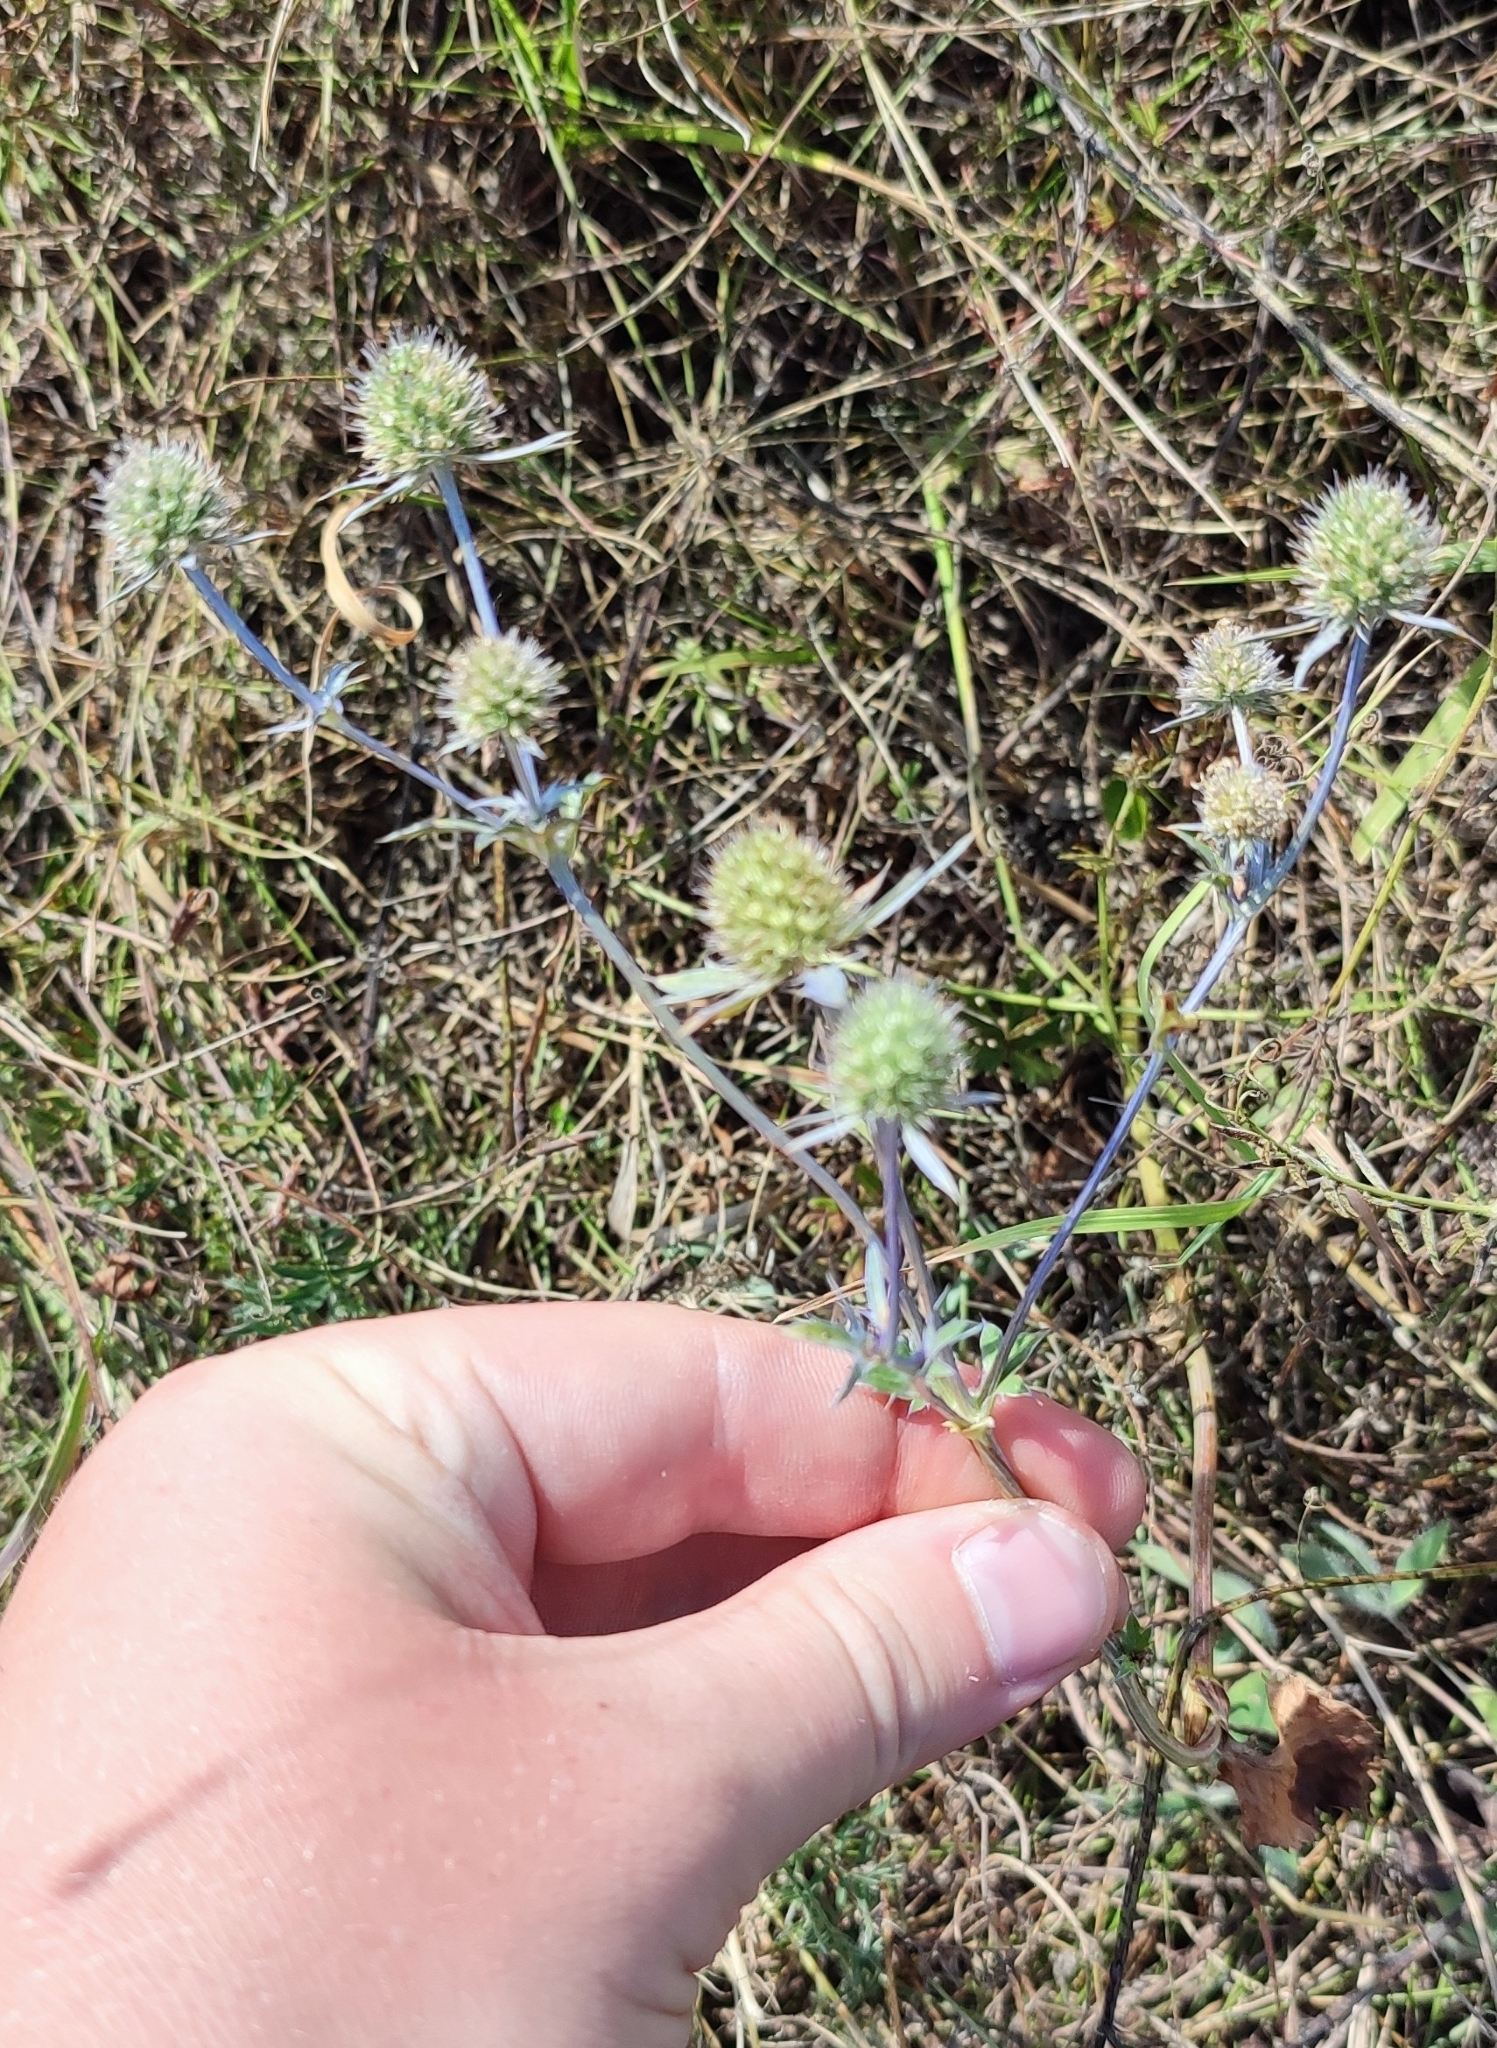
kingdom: Plantae
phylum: Tracheophyta
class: Magnoliopsida
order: Apiales
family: Apiaceae
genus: Eryngium
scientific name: Eryngium planum
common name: Blue eryngo
